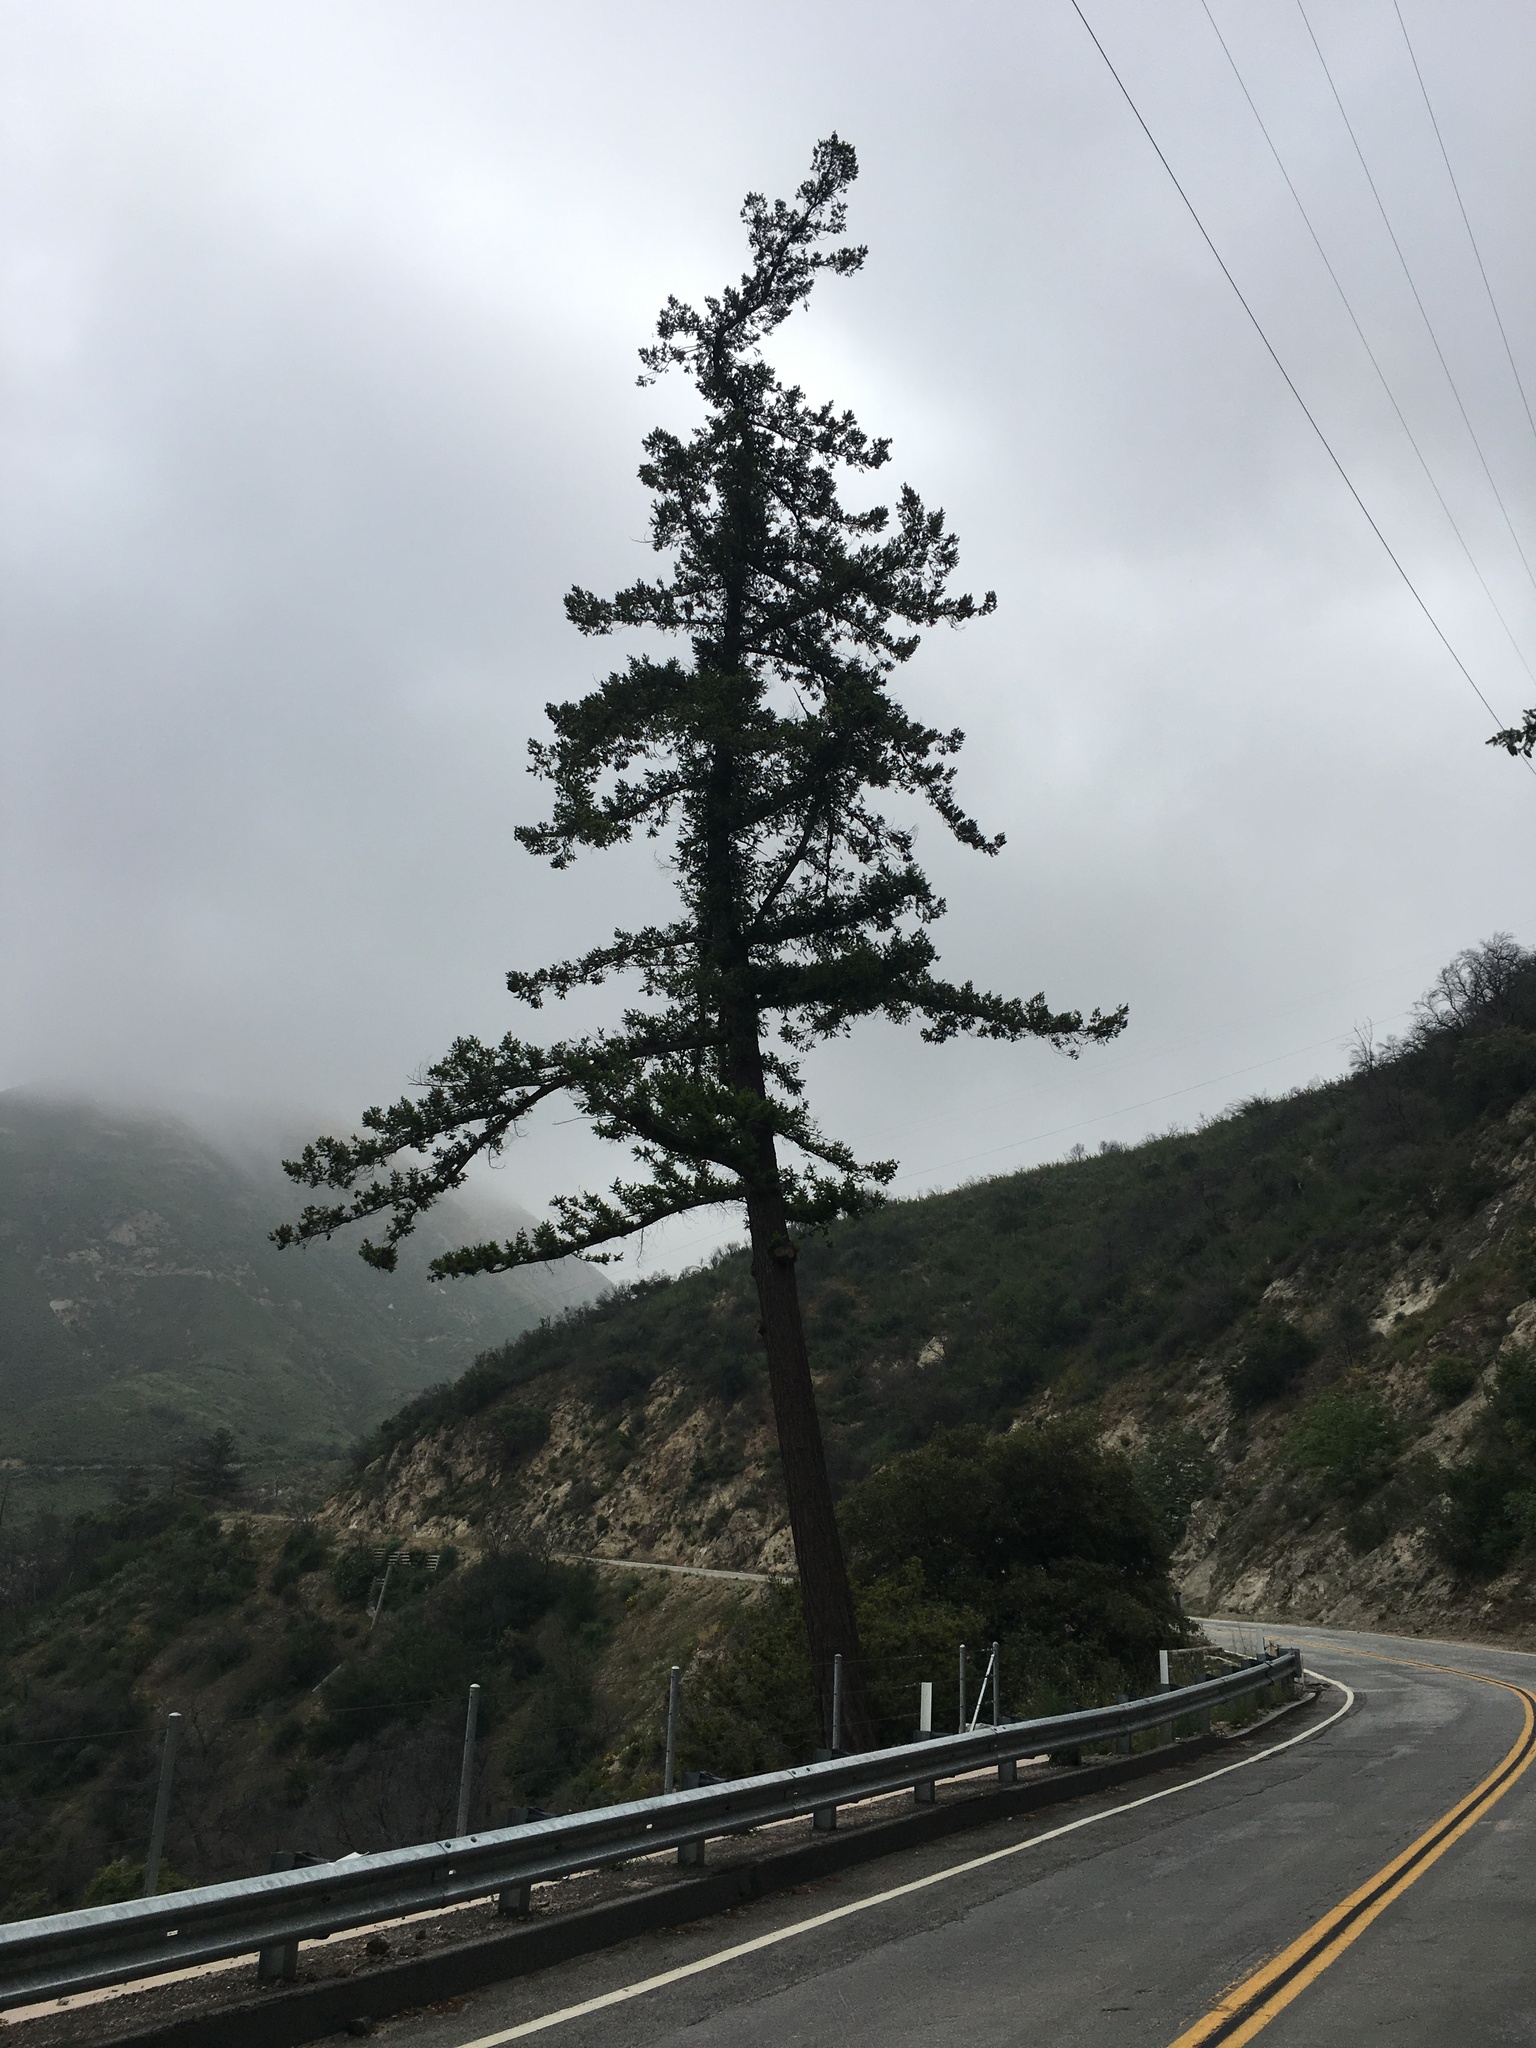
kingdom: Plantae
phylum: Tracheophyta
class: Pinopsida
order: Pinales
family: Pinaceae
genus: Pseudotsuga
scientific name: Pseudotsuga macrocarpa
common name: Big-cone douglas-fir
